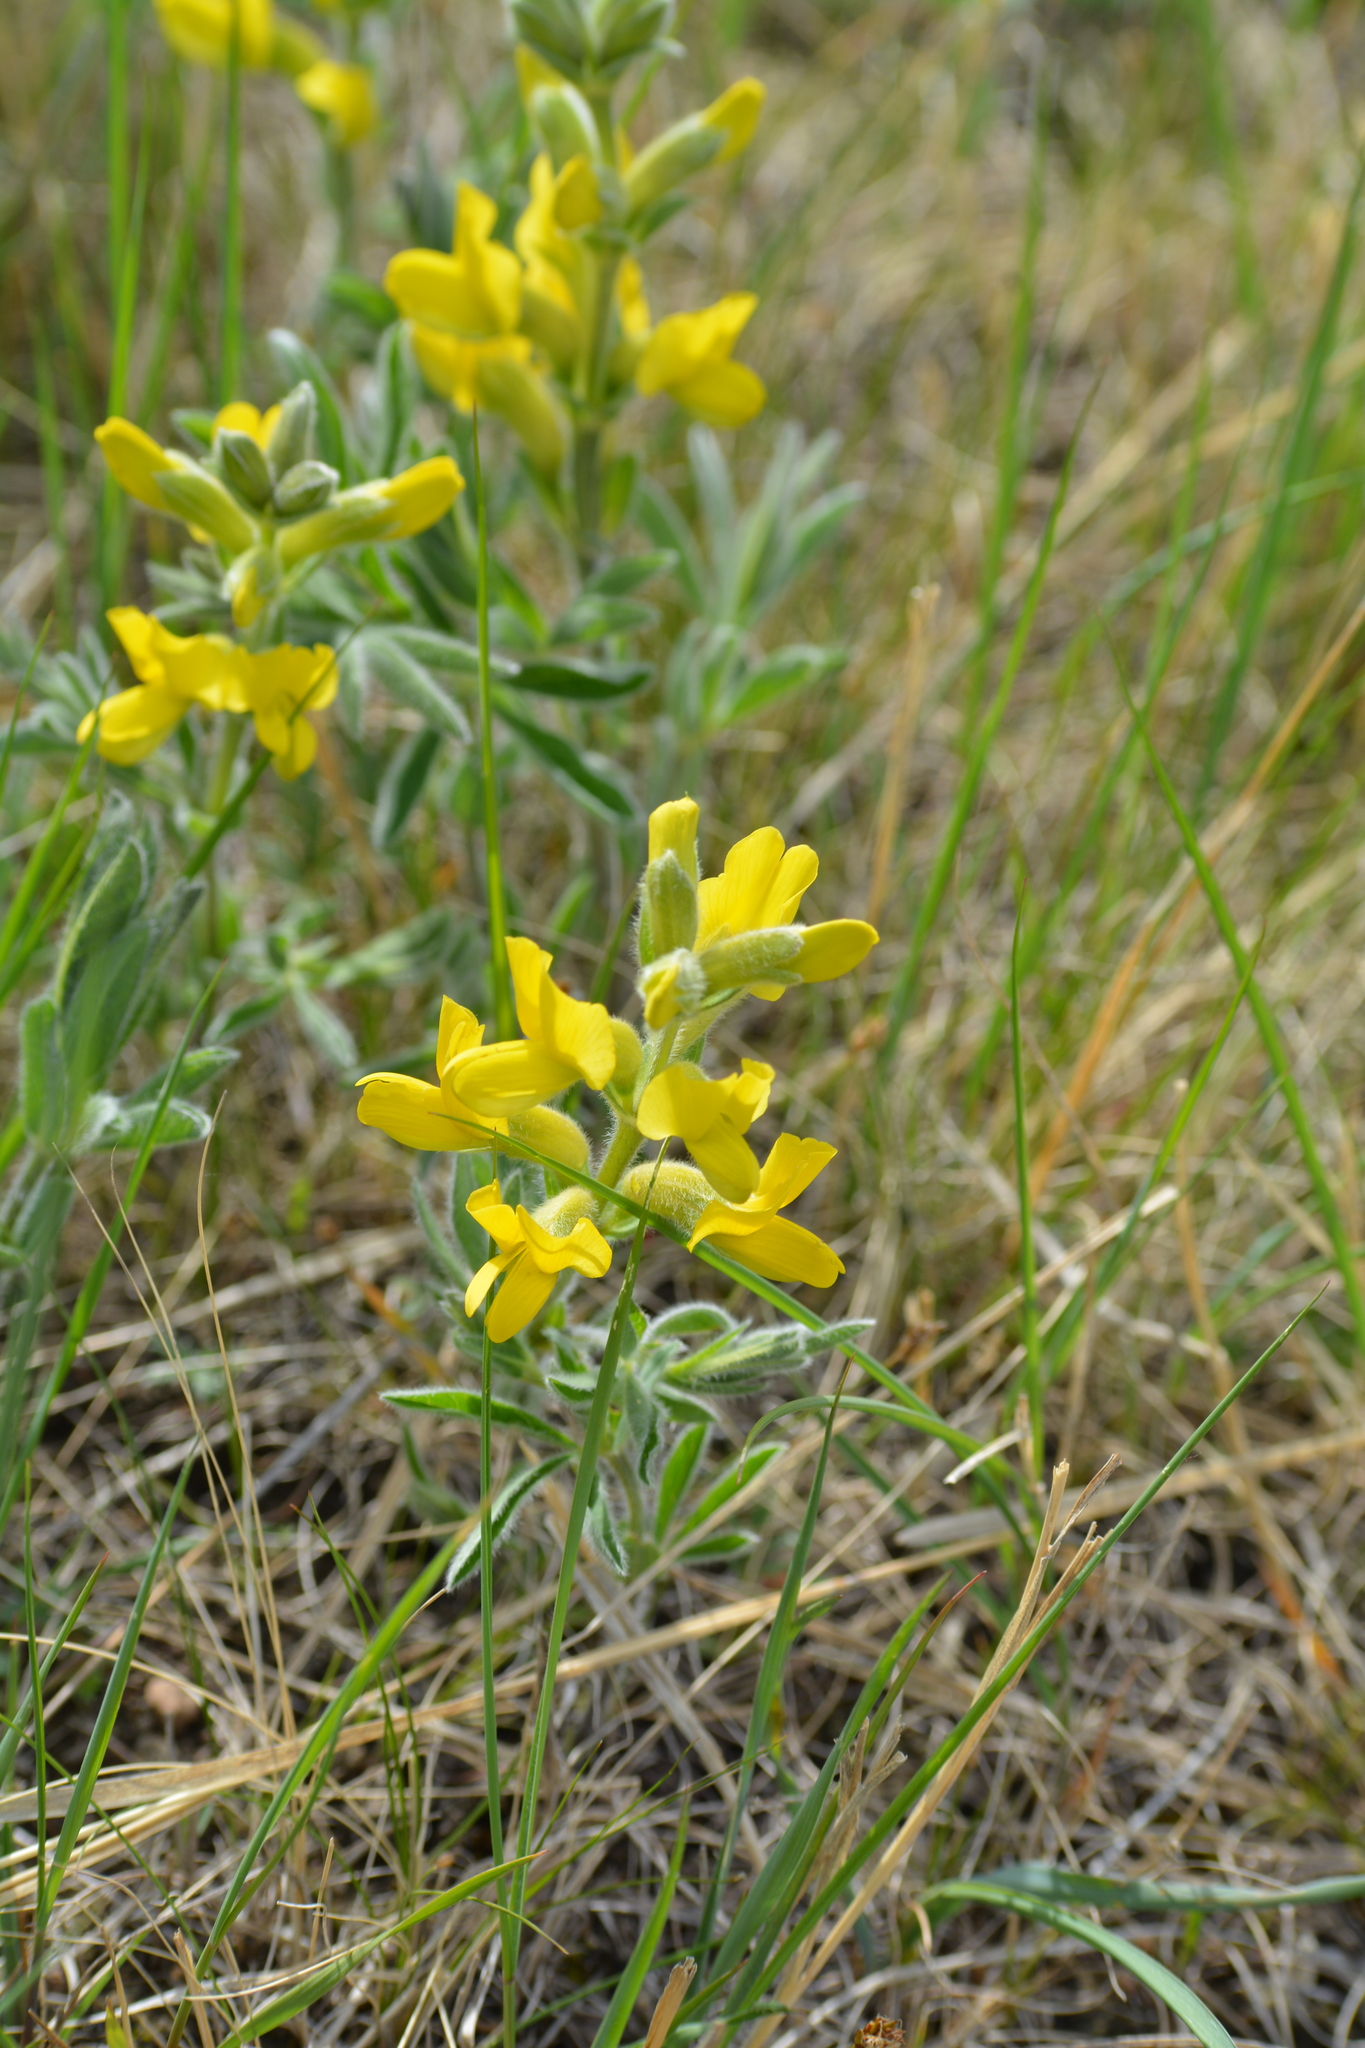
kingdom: Plantae
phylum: Tracheophyta
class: Magnoliopsida
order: Fabales
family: Fabaceae
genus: Thermopsis
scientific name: Thermopsis lanceolata
